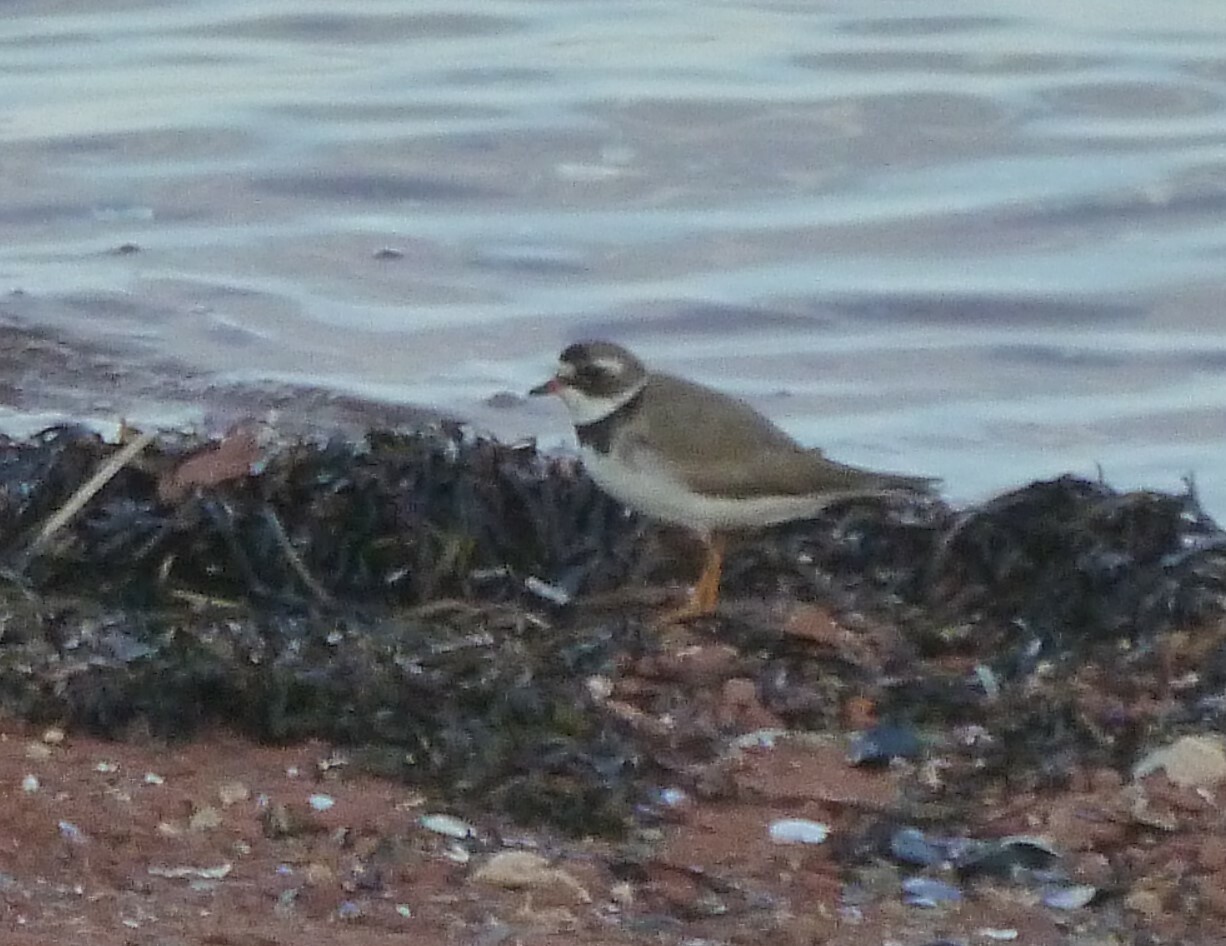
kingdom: Animalia
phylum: Chordata
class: Aves
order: Charadriiformes
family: Charadriidae
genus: Charadrius
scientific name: Charadrius semipalmatus
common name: Semipalmated plover
